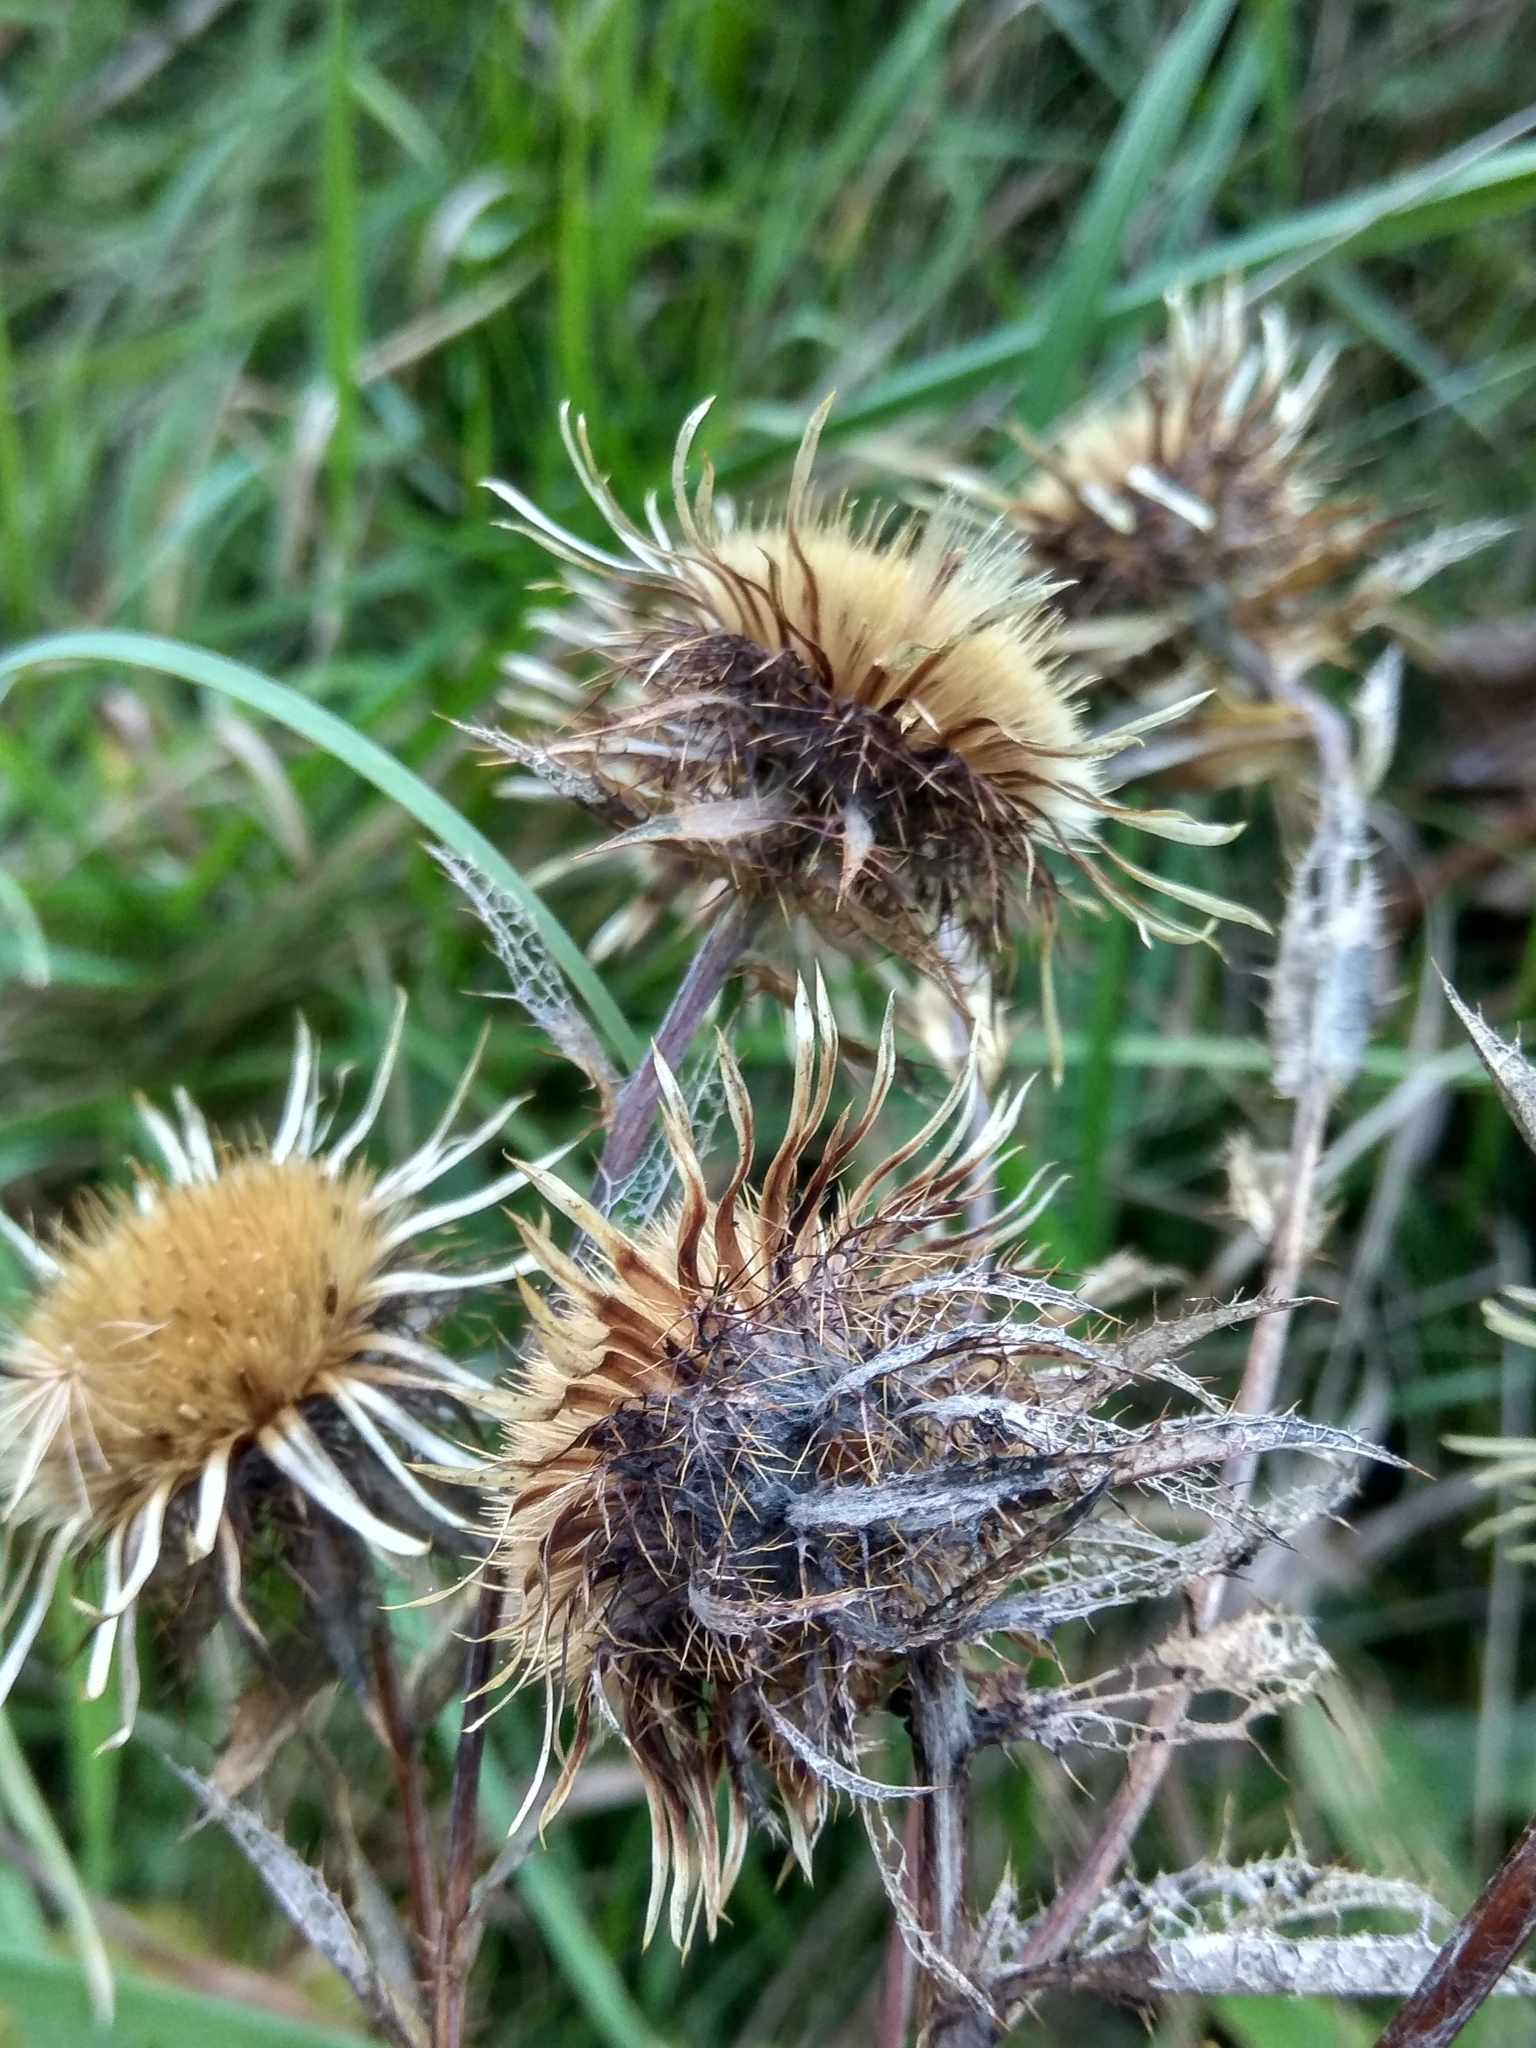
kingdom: Plantae
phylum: Tracheophyta
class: Magnoliopsida
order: Asterales
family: Asteraceae
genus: Carlina
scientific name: Carlina biebersteinii
